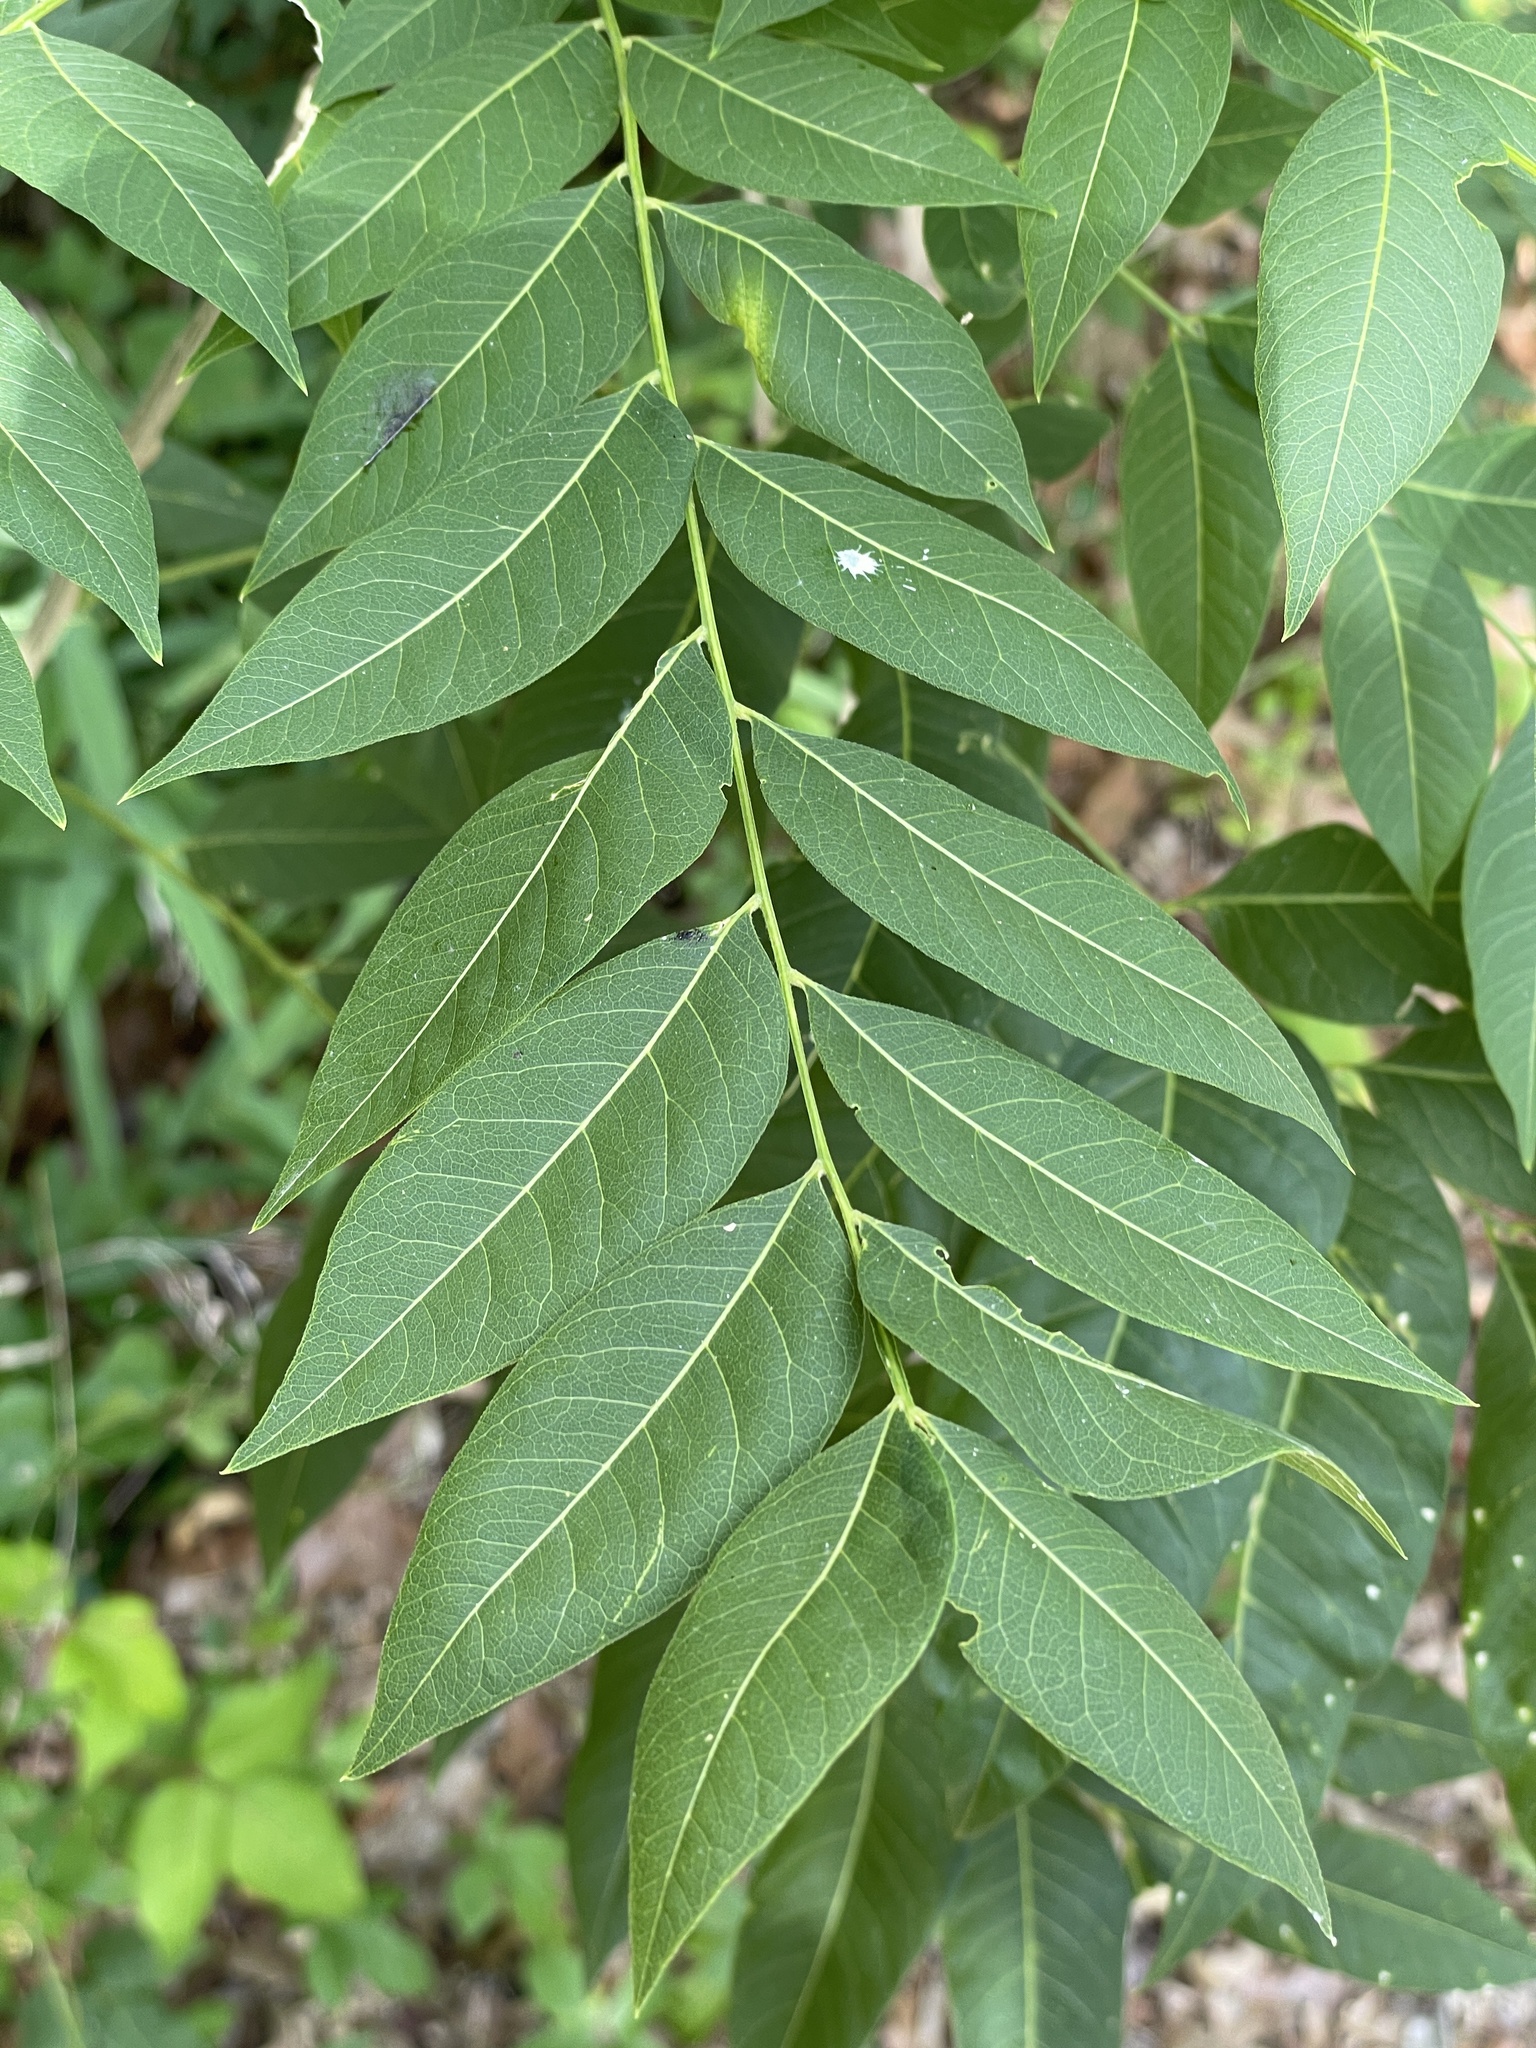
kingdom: Plantae
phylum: Tracheophyta
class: Magnoliopsida
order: Sapindales
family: Sapindaceae
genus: Sapindus
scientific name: Sapindus drummondii
